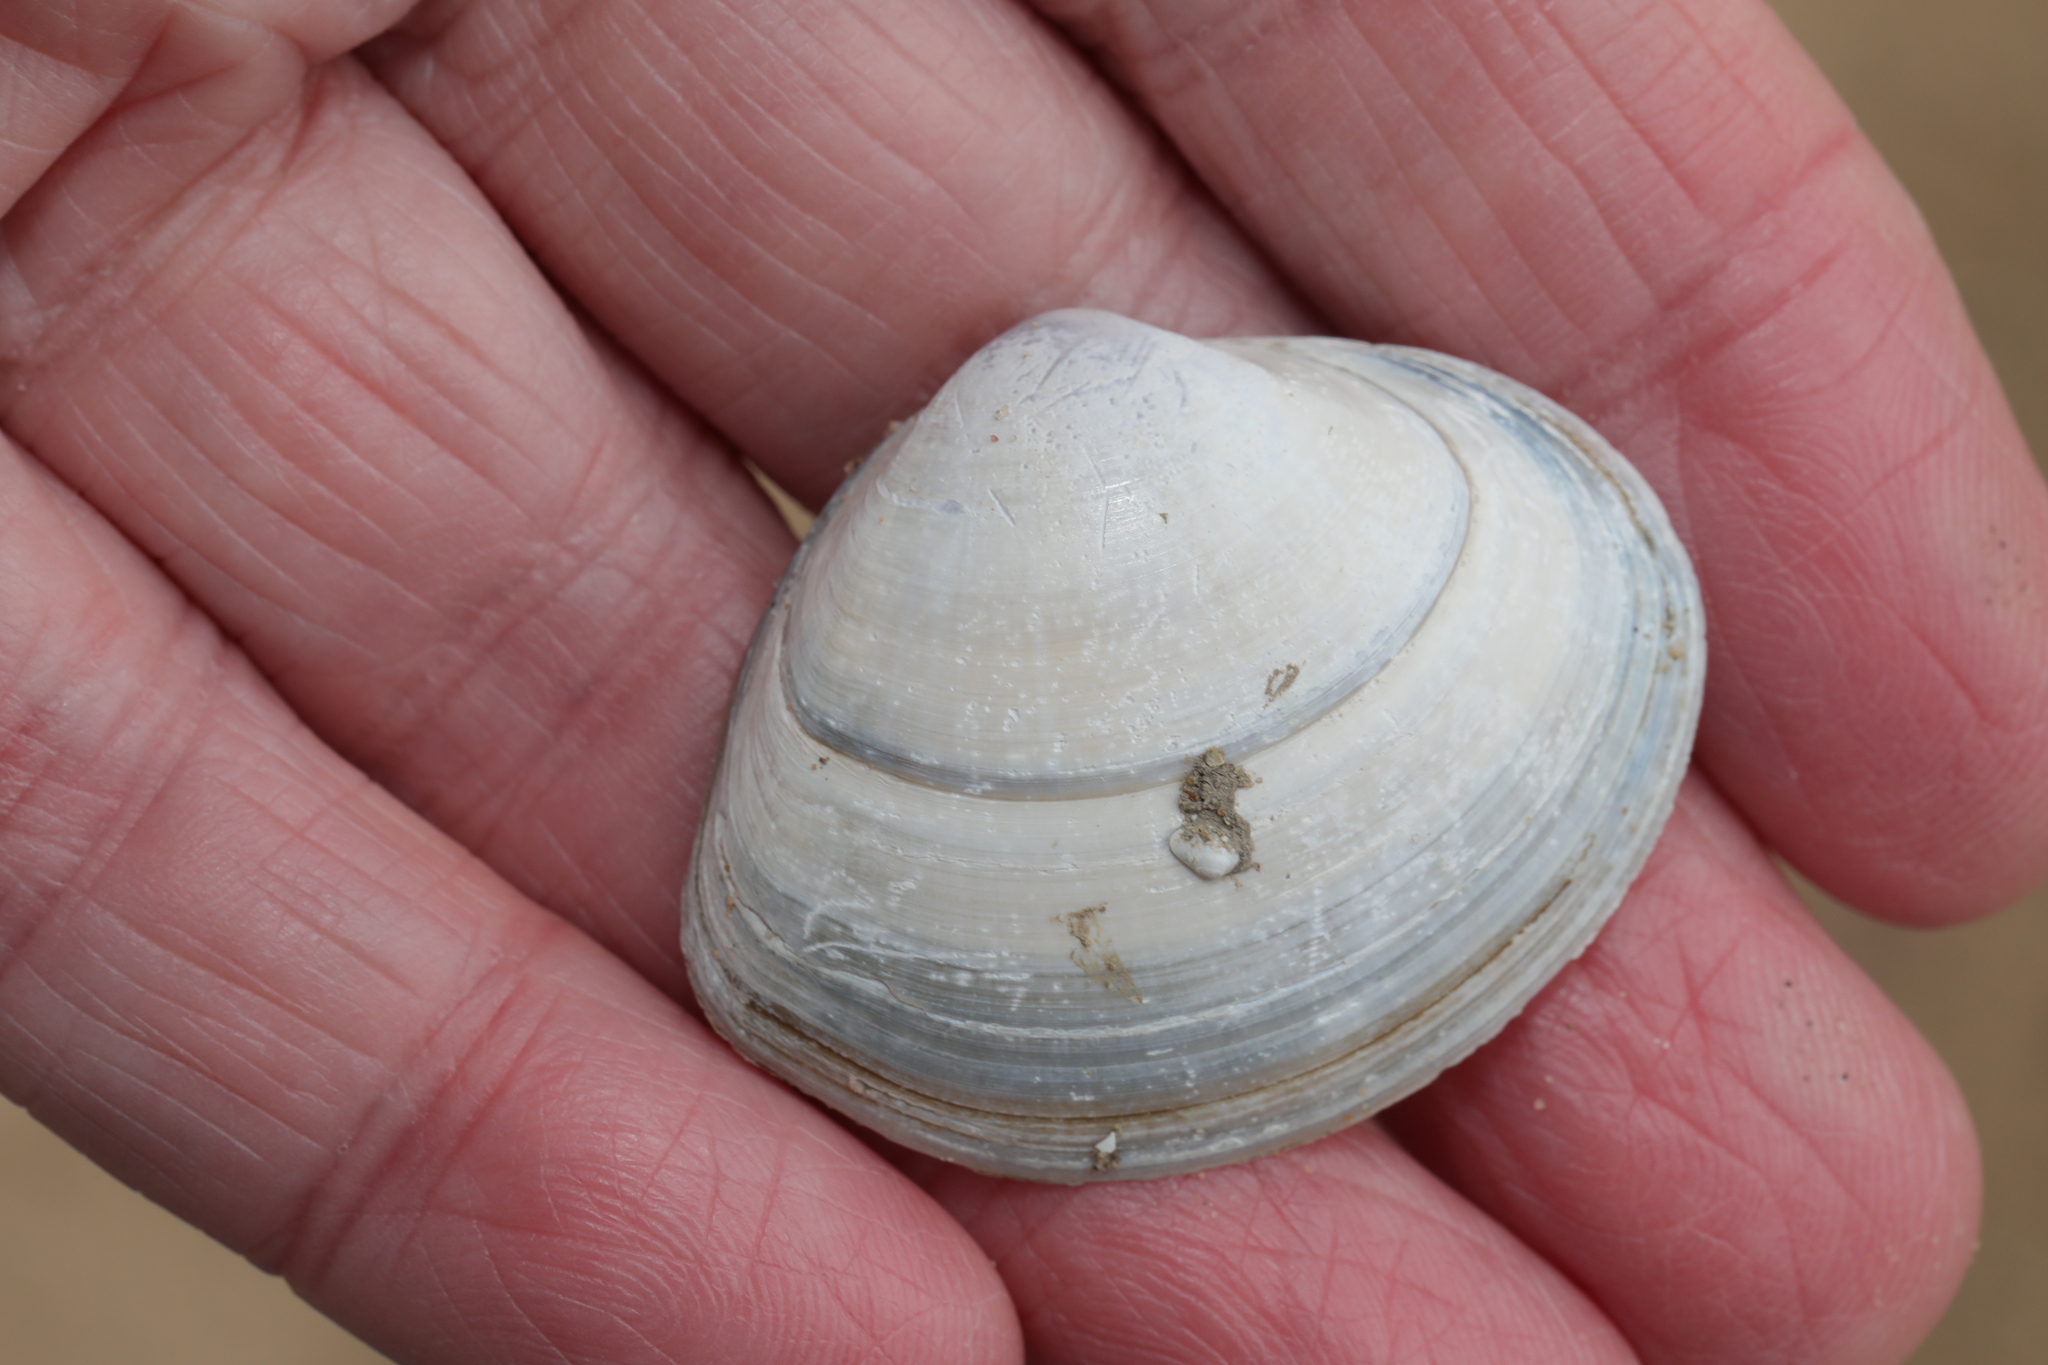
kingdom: Animalia
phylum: Mollusca
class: Bivalvia
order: Venerida
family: Mactridae
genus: Mactra
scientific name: Mactra stultorum
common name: Rayed trough shell
